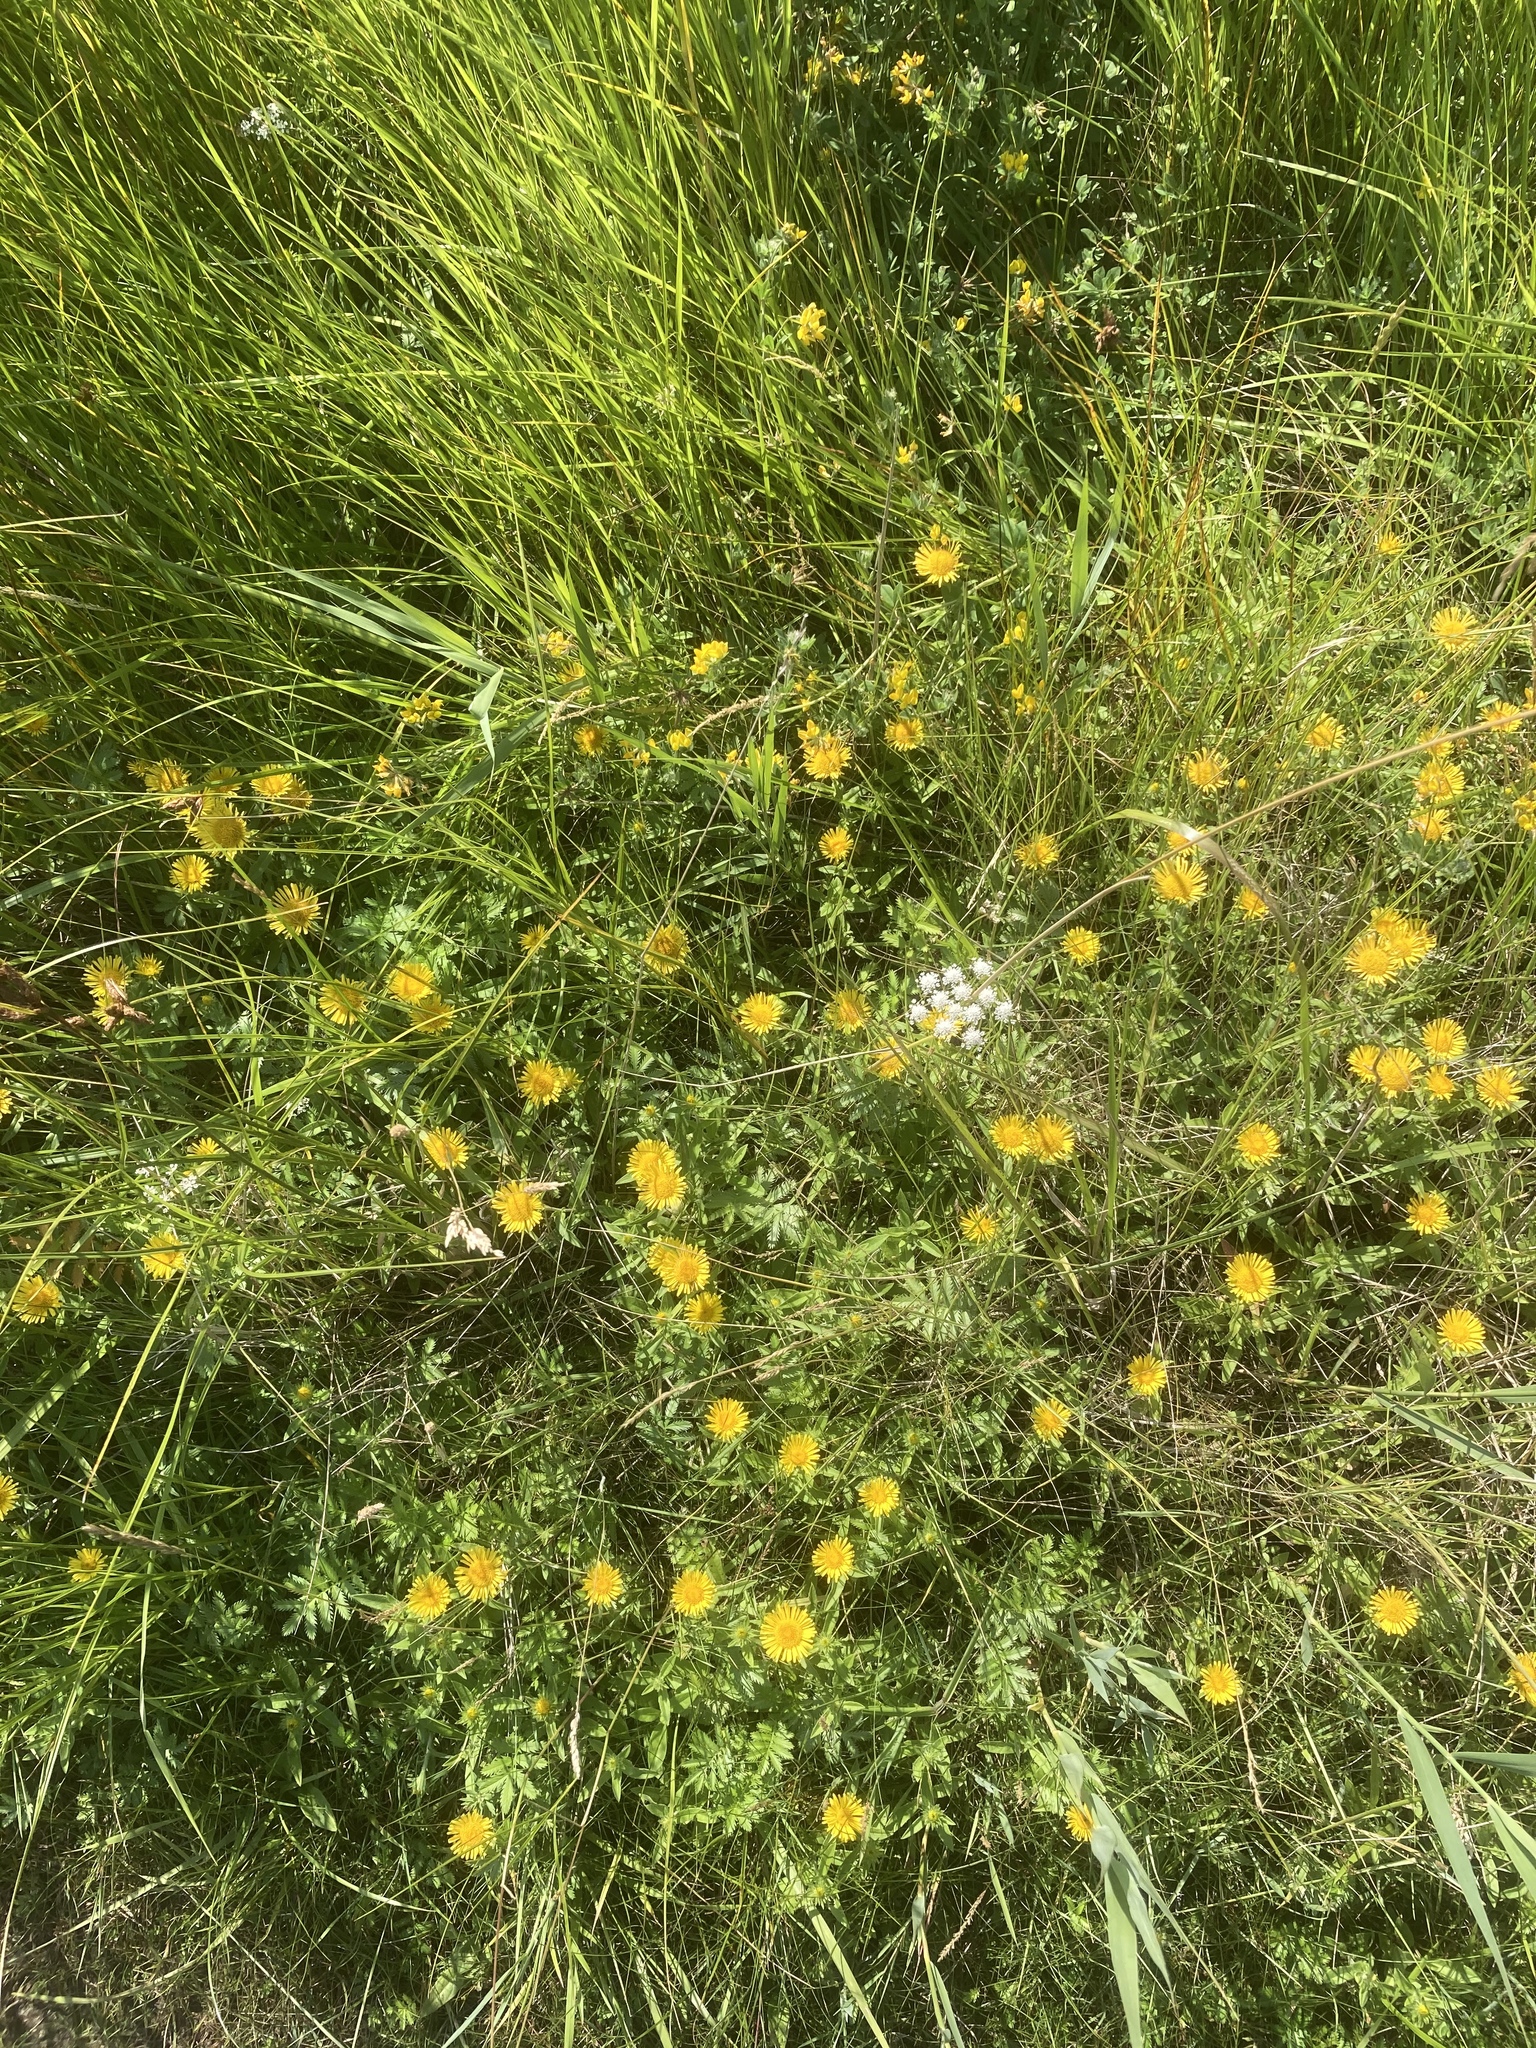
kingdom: Plantae
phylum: Tracheophyta
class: Magnoliopsida
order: Asterales
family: Asteraceae
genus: Pentanema
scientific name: Pentanema britannicum
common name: British elecampane
